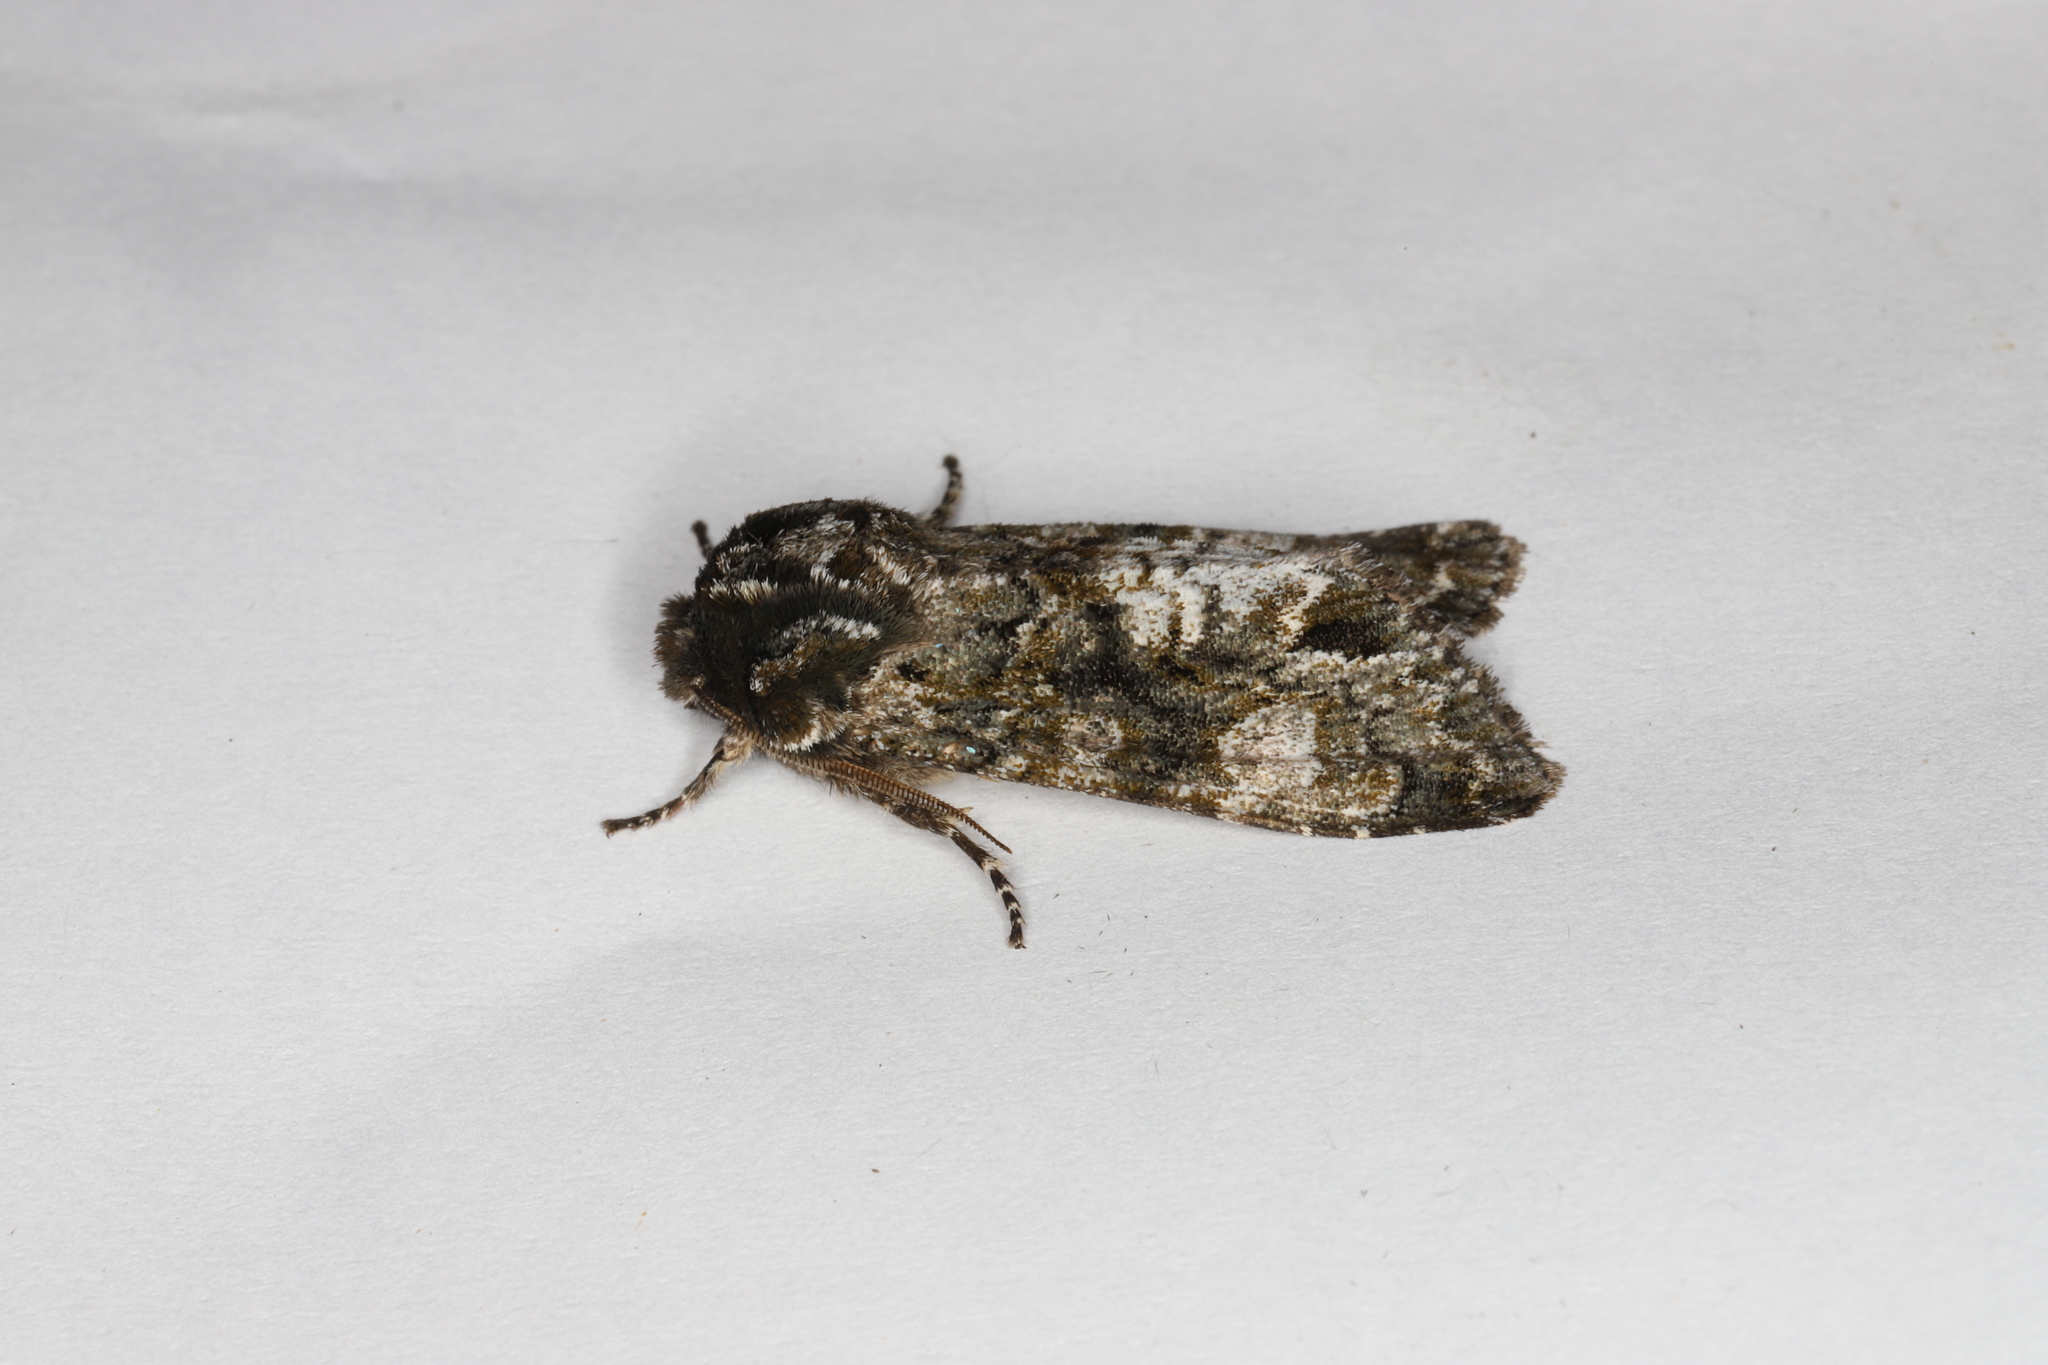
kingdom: Animalia
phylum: Arthropoda
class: Insecta
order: Lepidoptera
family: Noctuidae
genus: Psaphida
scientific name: Psaphida grotei
